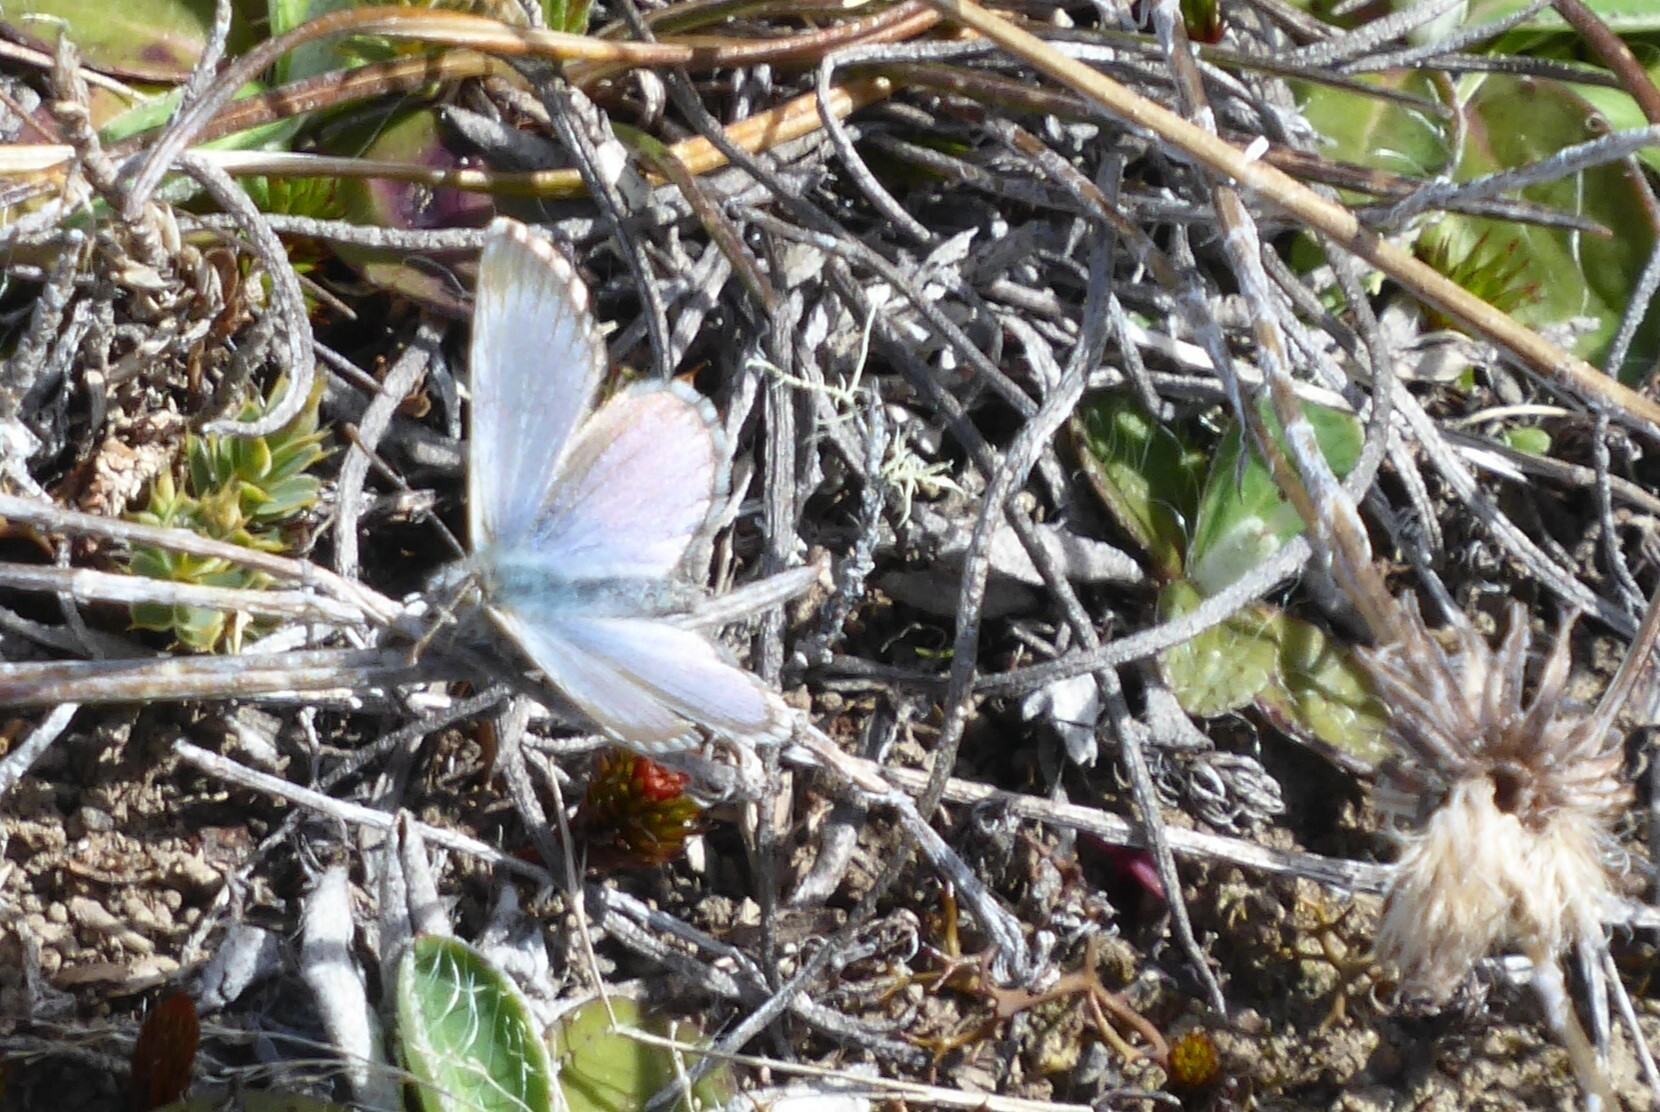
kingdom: Animalia
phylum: Arthropoda
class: Insecta
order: Lepidoptera
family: Lycaenidae
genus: Zizina
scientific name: Zizina oxleyi
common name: Southern blue
